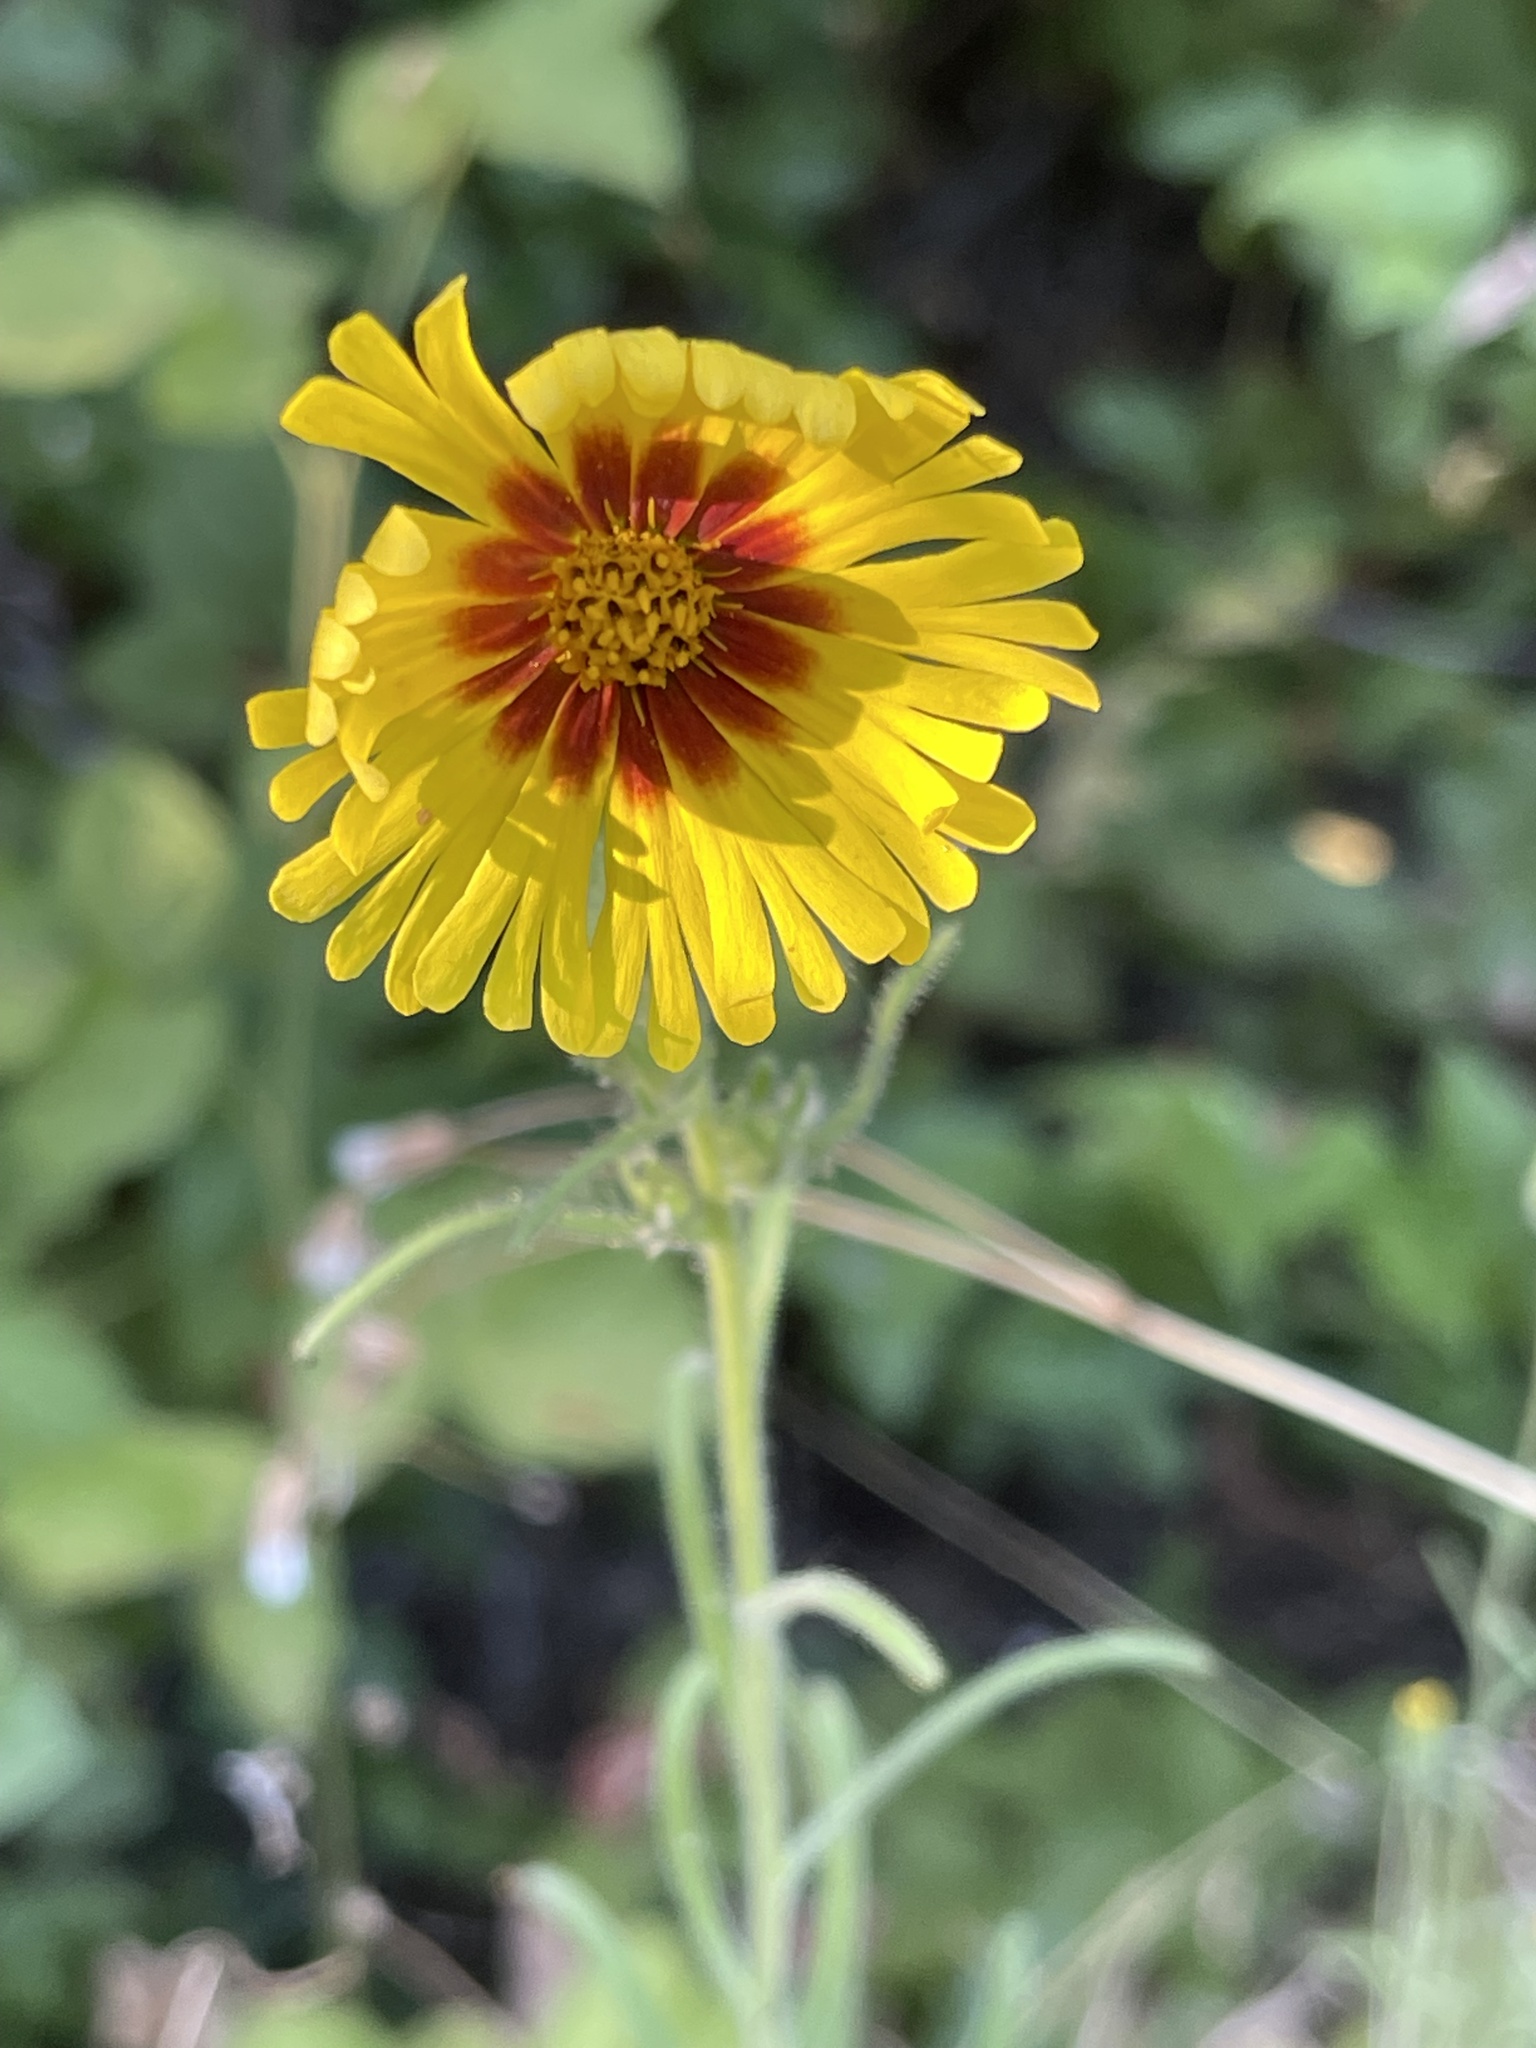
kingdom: Plantae
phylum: Tracheophyta
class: Magnoliopsida
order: Asterales
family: Asteraceae
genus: Madia
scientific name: Madia elegans
